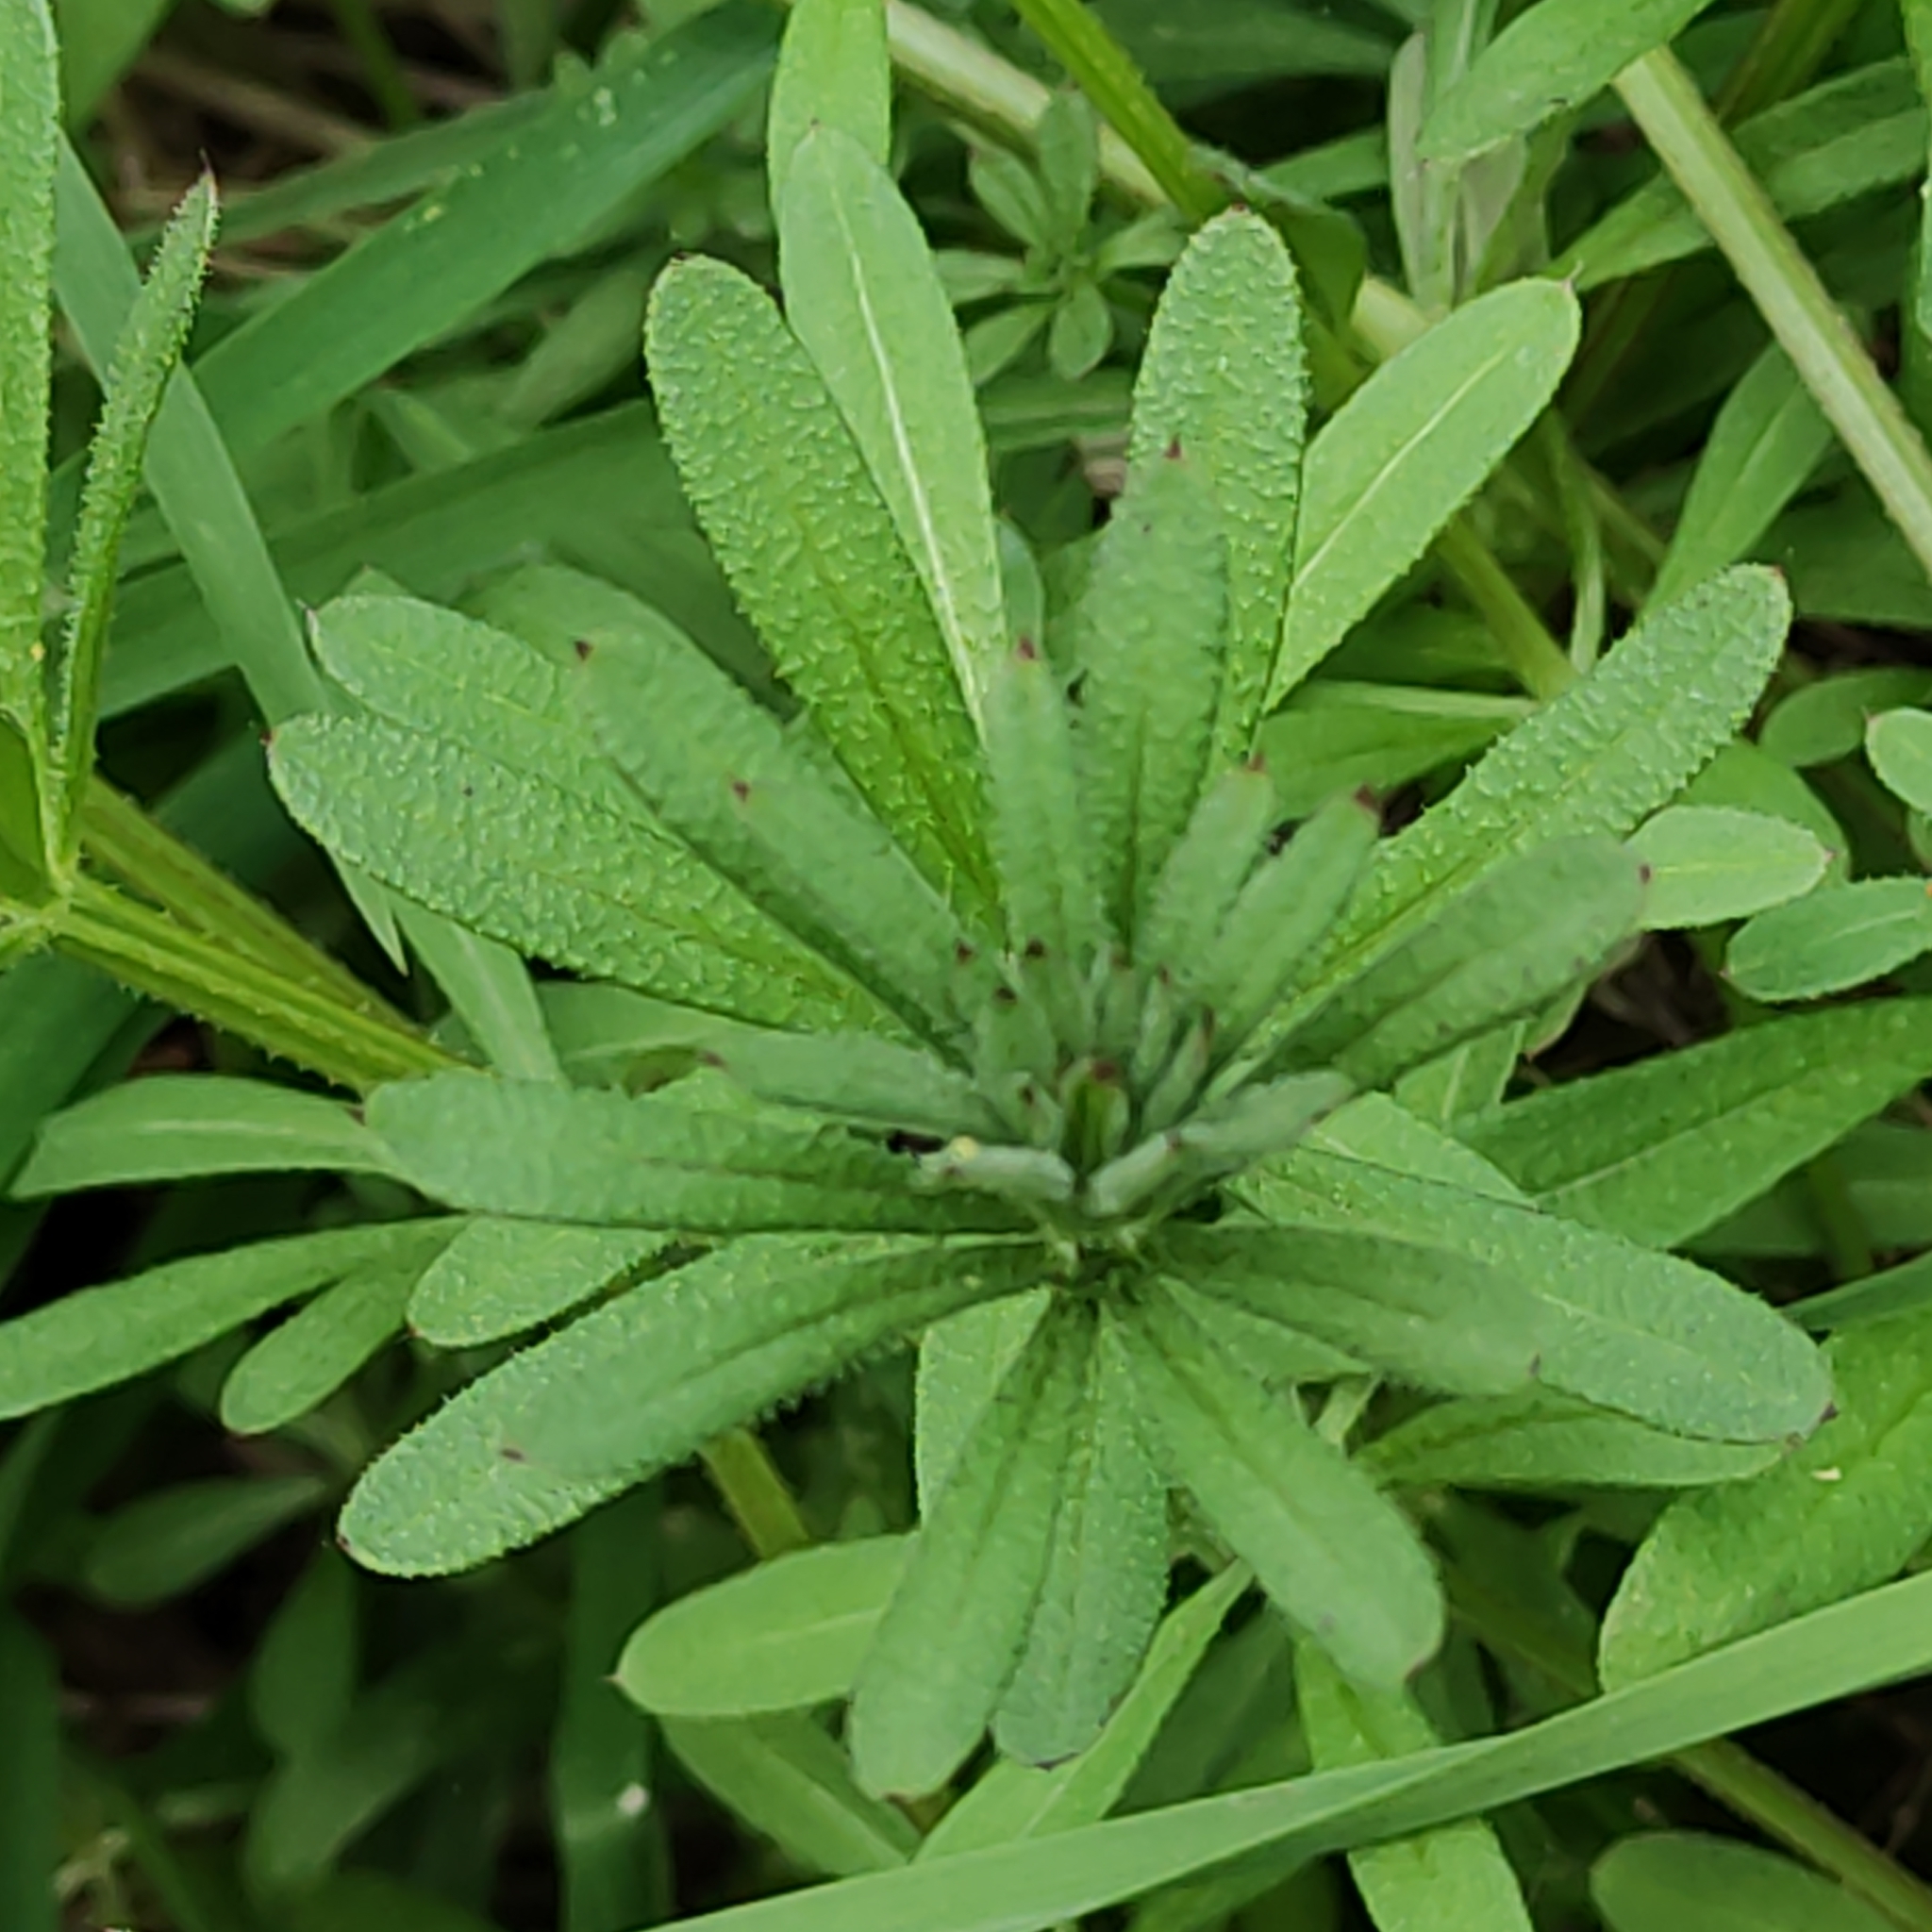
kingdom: Plantae
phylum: Tracheophyta
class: Magnoliopsida
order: Gentianales
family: Rubiaceae
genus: Galium
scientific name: Galium aparine
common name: Cleavers
